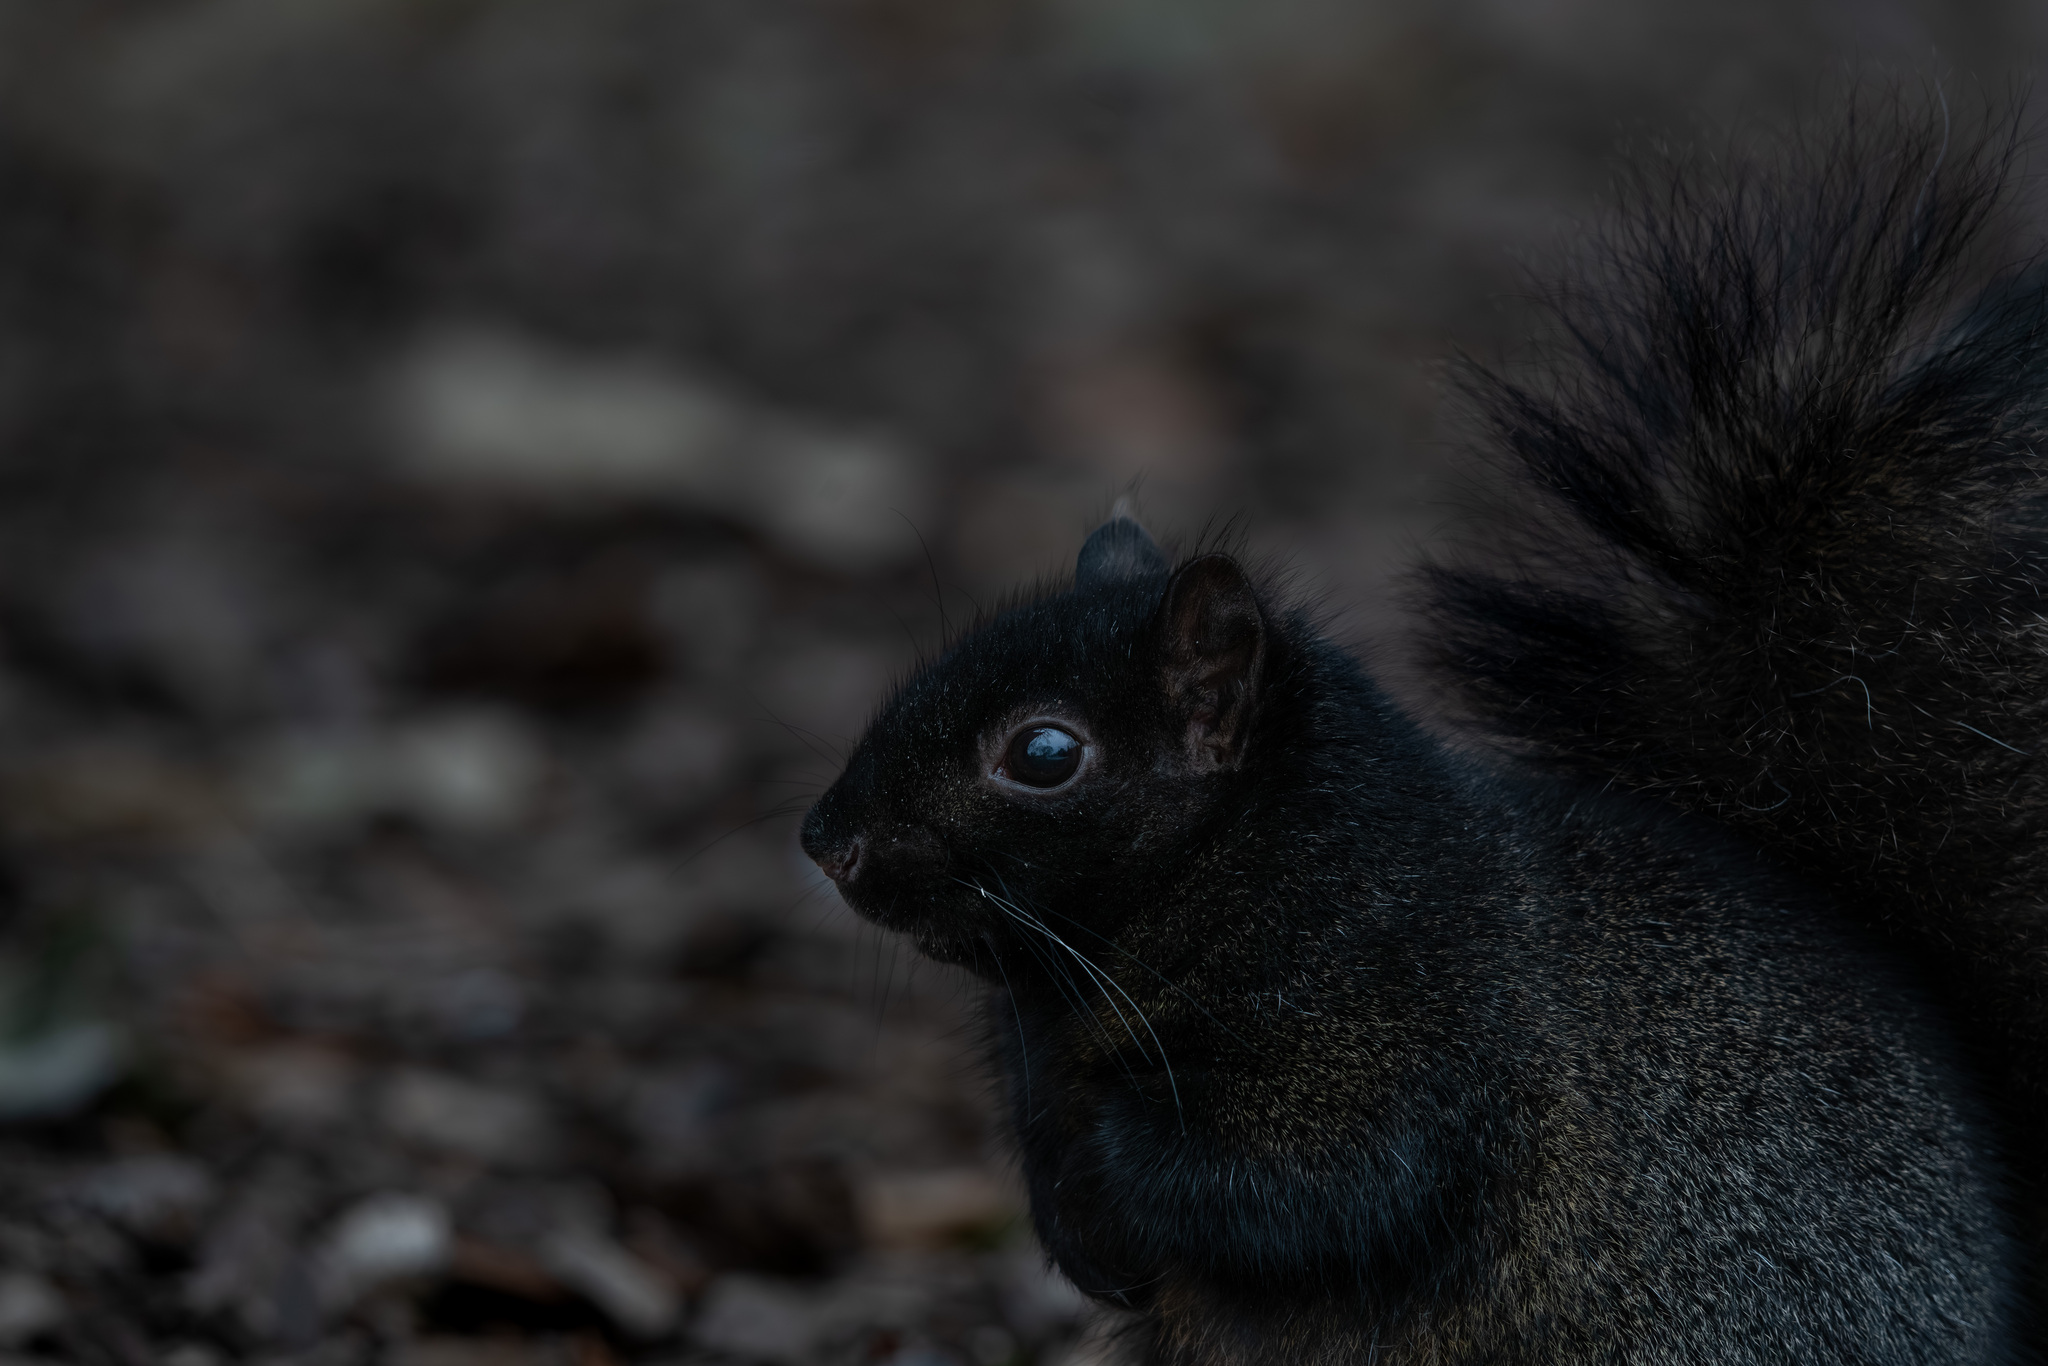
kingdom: Animalia
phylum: Chordata
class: Mammalia
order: Rodentia
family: Sciuridae
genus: Sciurus
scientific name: Sciurus carolinensis
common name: Eastern gray squirrel
